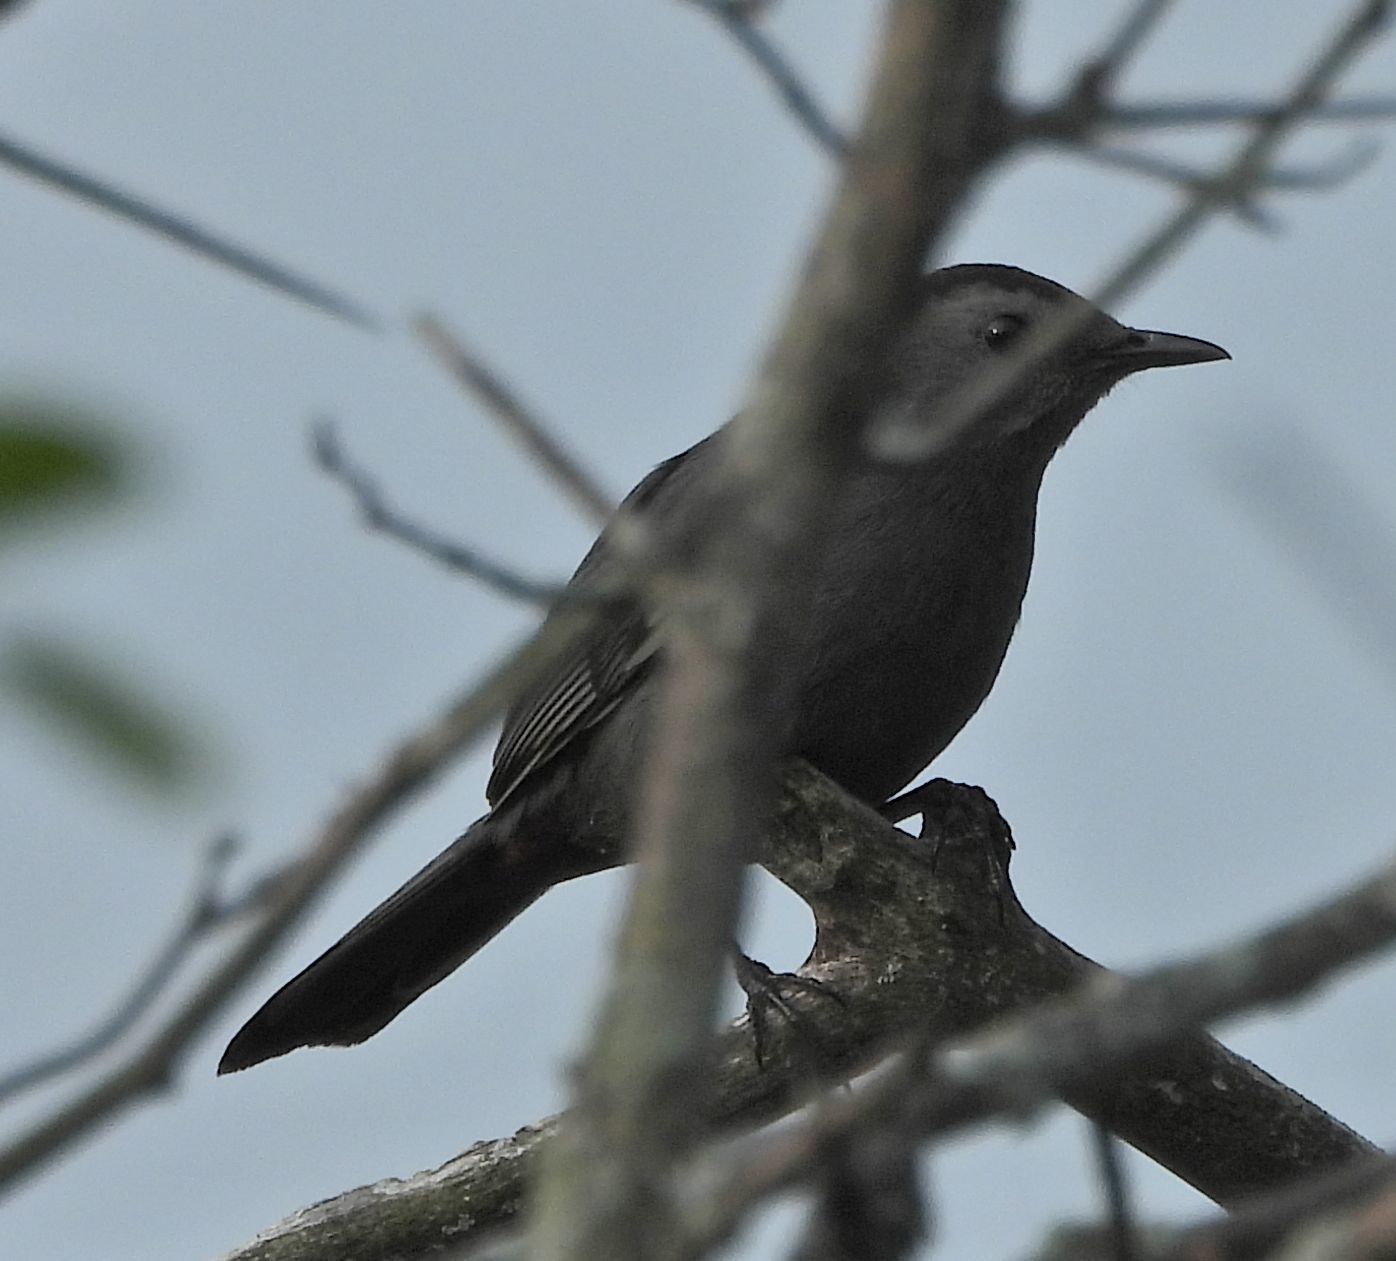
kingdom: Animalia
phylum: Chordata
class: Aves
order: Passeriformes
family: Mimidae
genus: Dumetella
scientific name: Dumetella carolinensis
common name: Gray catbird
